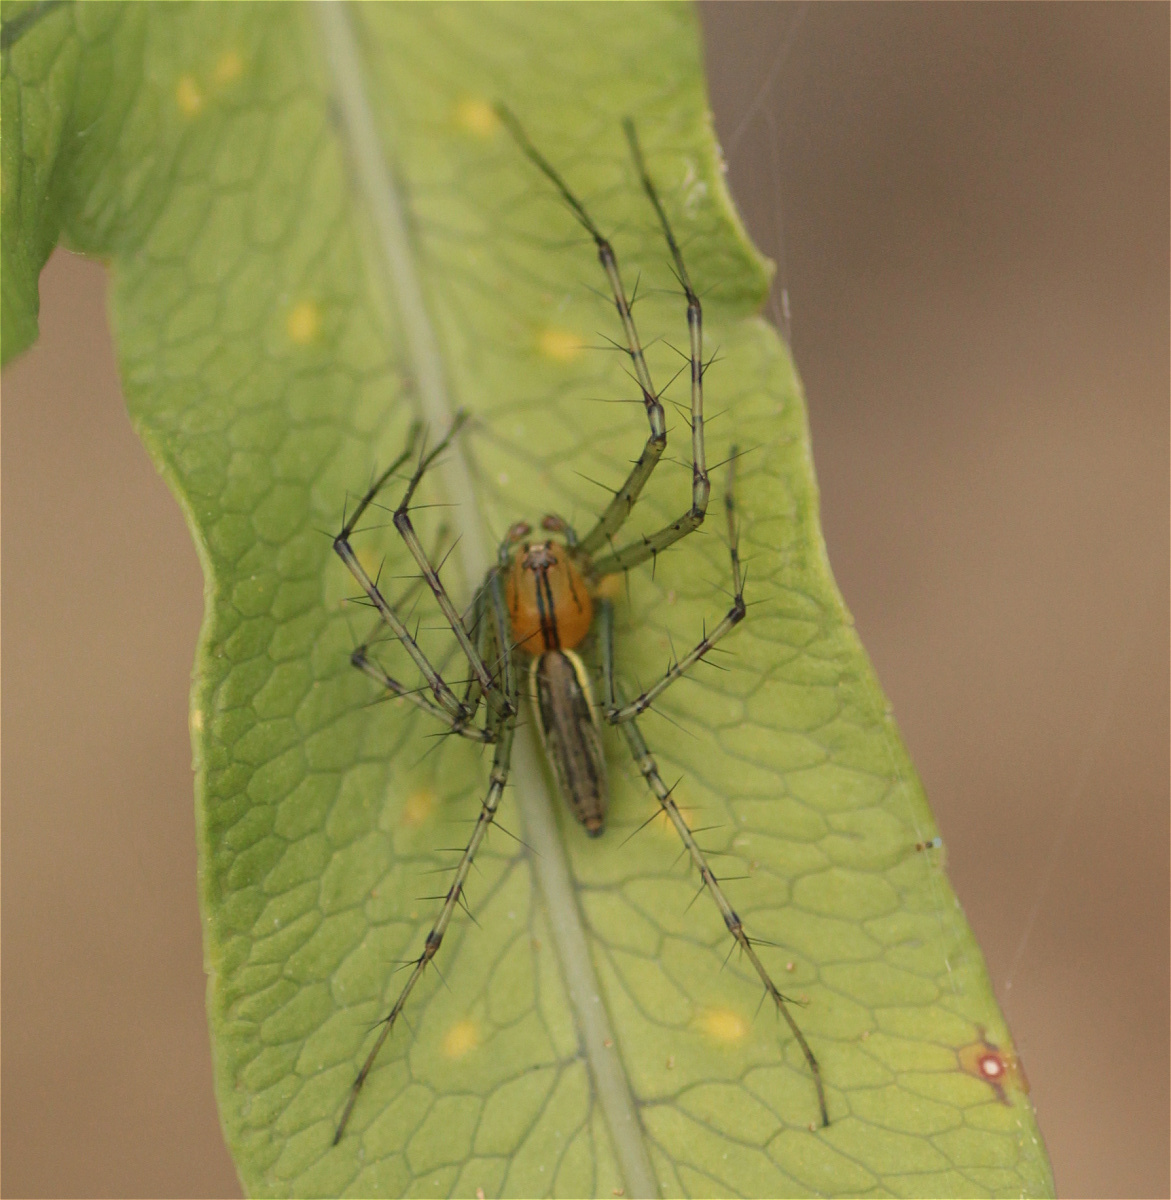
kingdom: Animalia
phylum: Arthropoda
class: Arachnida
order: Araneae
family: Oxyopidae
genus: Peucetia
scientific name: Peucetia rubrolineata
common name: Lynx spiders
